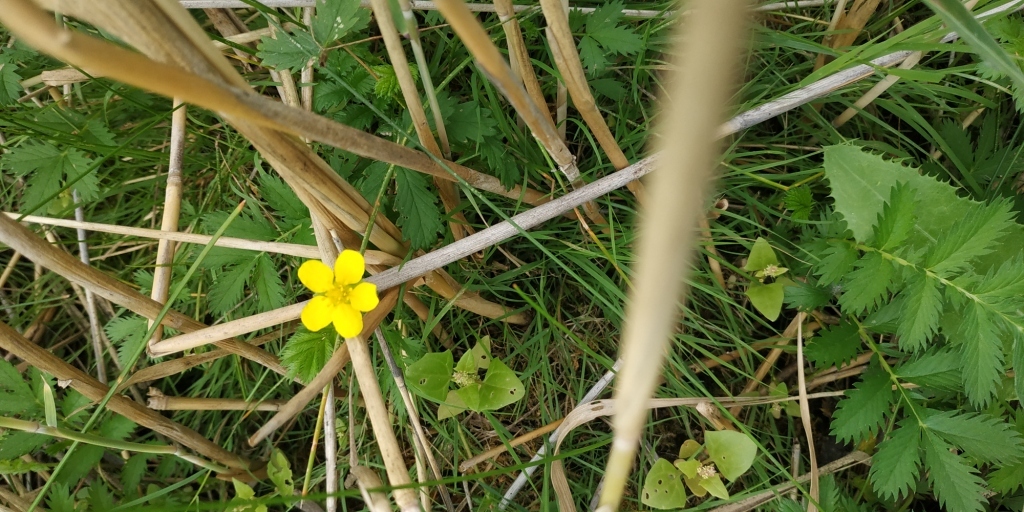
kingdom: Plantae
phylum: Tracheophyta
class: Magnoliopsida
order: Rosales
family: Rosaceae
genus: Argentina
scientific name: Argentina anserina
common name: Common silverweed
